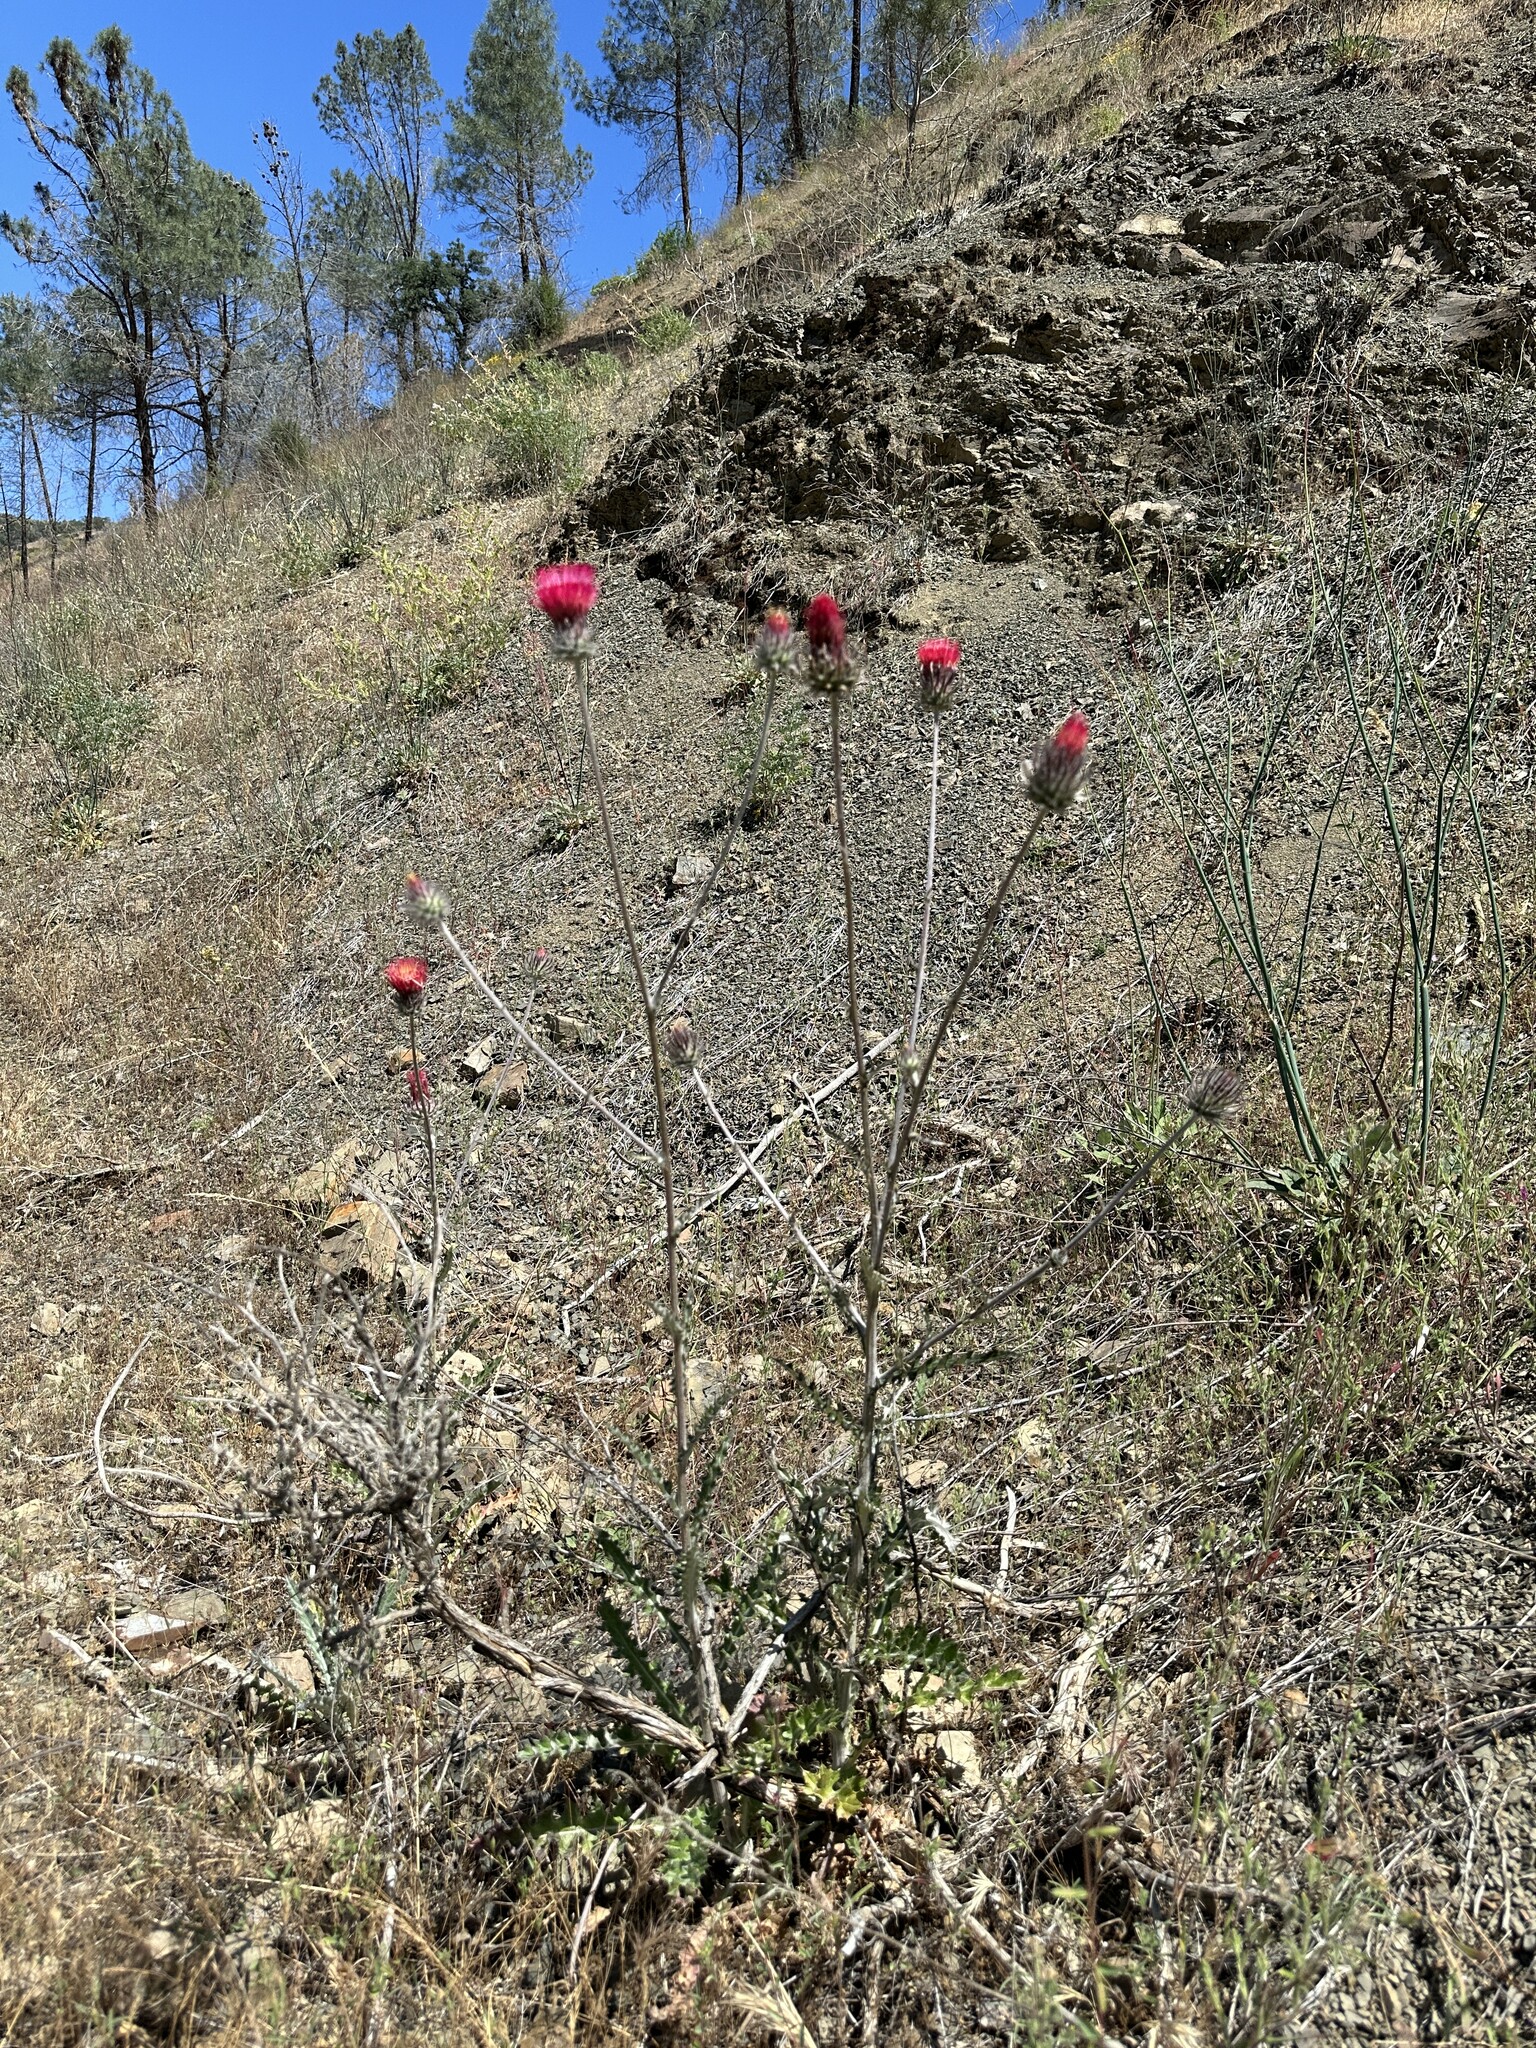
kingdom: Plantae
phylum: Tracheophyta
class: Magnoliopsida
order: Asterales
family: Asteraceae
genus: Cirsium
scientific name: Cirsium occidentale
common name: Western thistle
